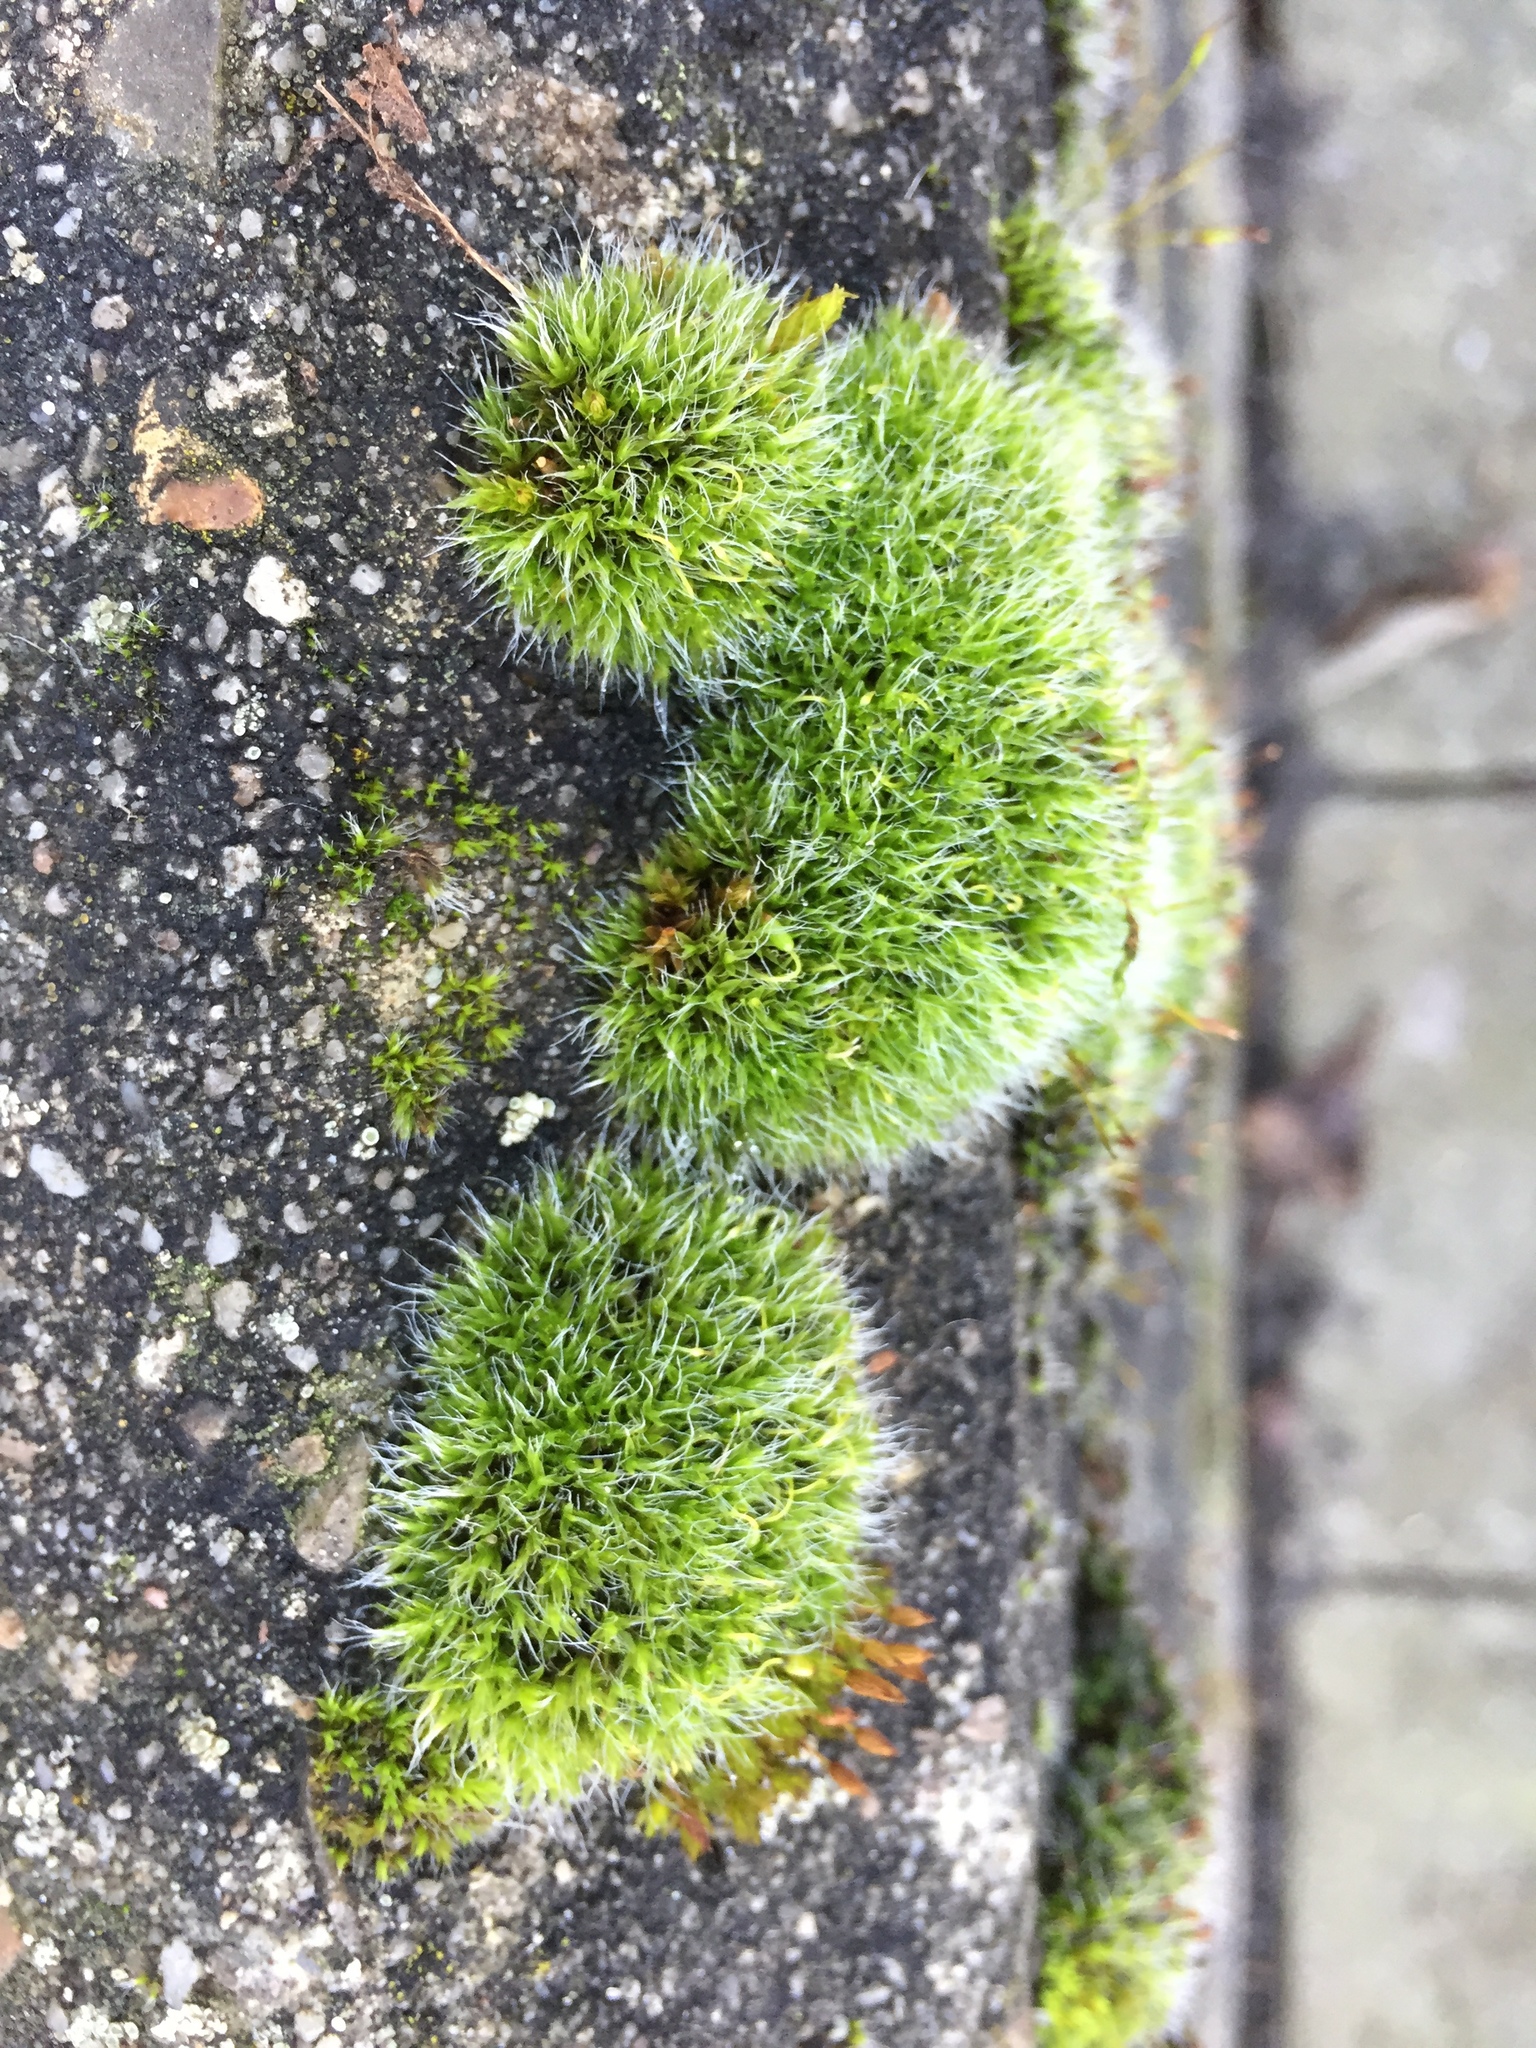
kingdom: Plantae
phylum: Bryophyta
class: Bryopsida
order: Grimmiales
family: Grimmiaceae
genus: Grimmia
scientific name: Grimmia pulvinata
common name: Grey-cushioned grimmia
